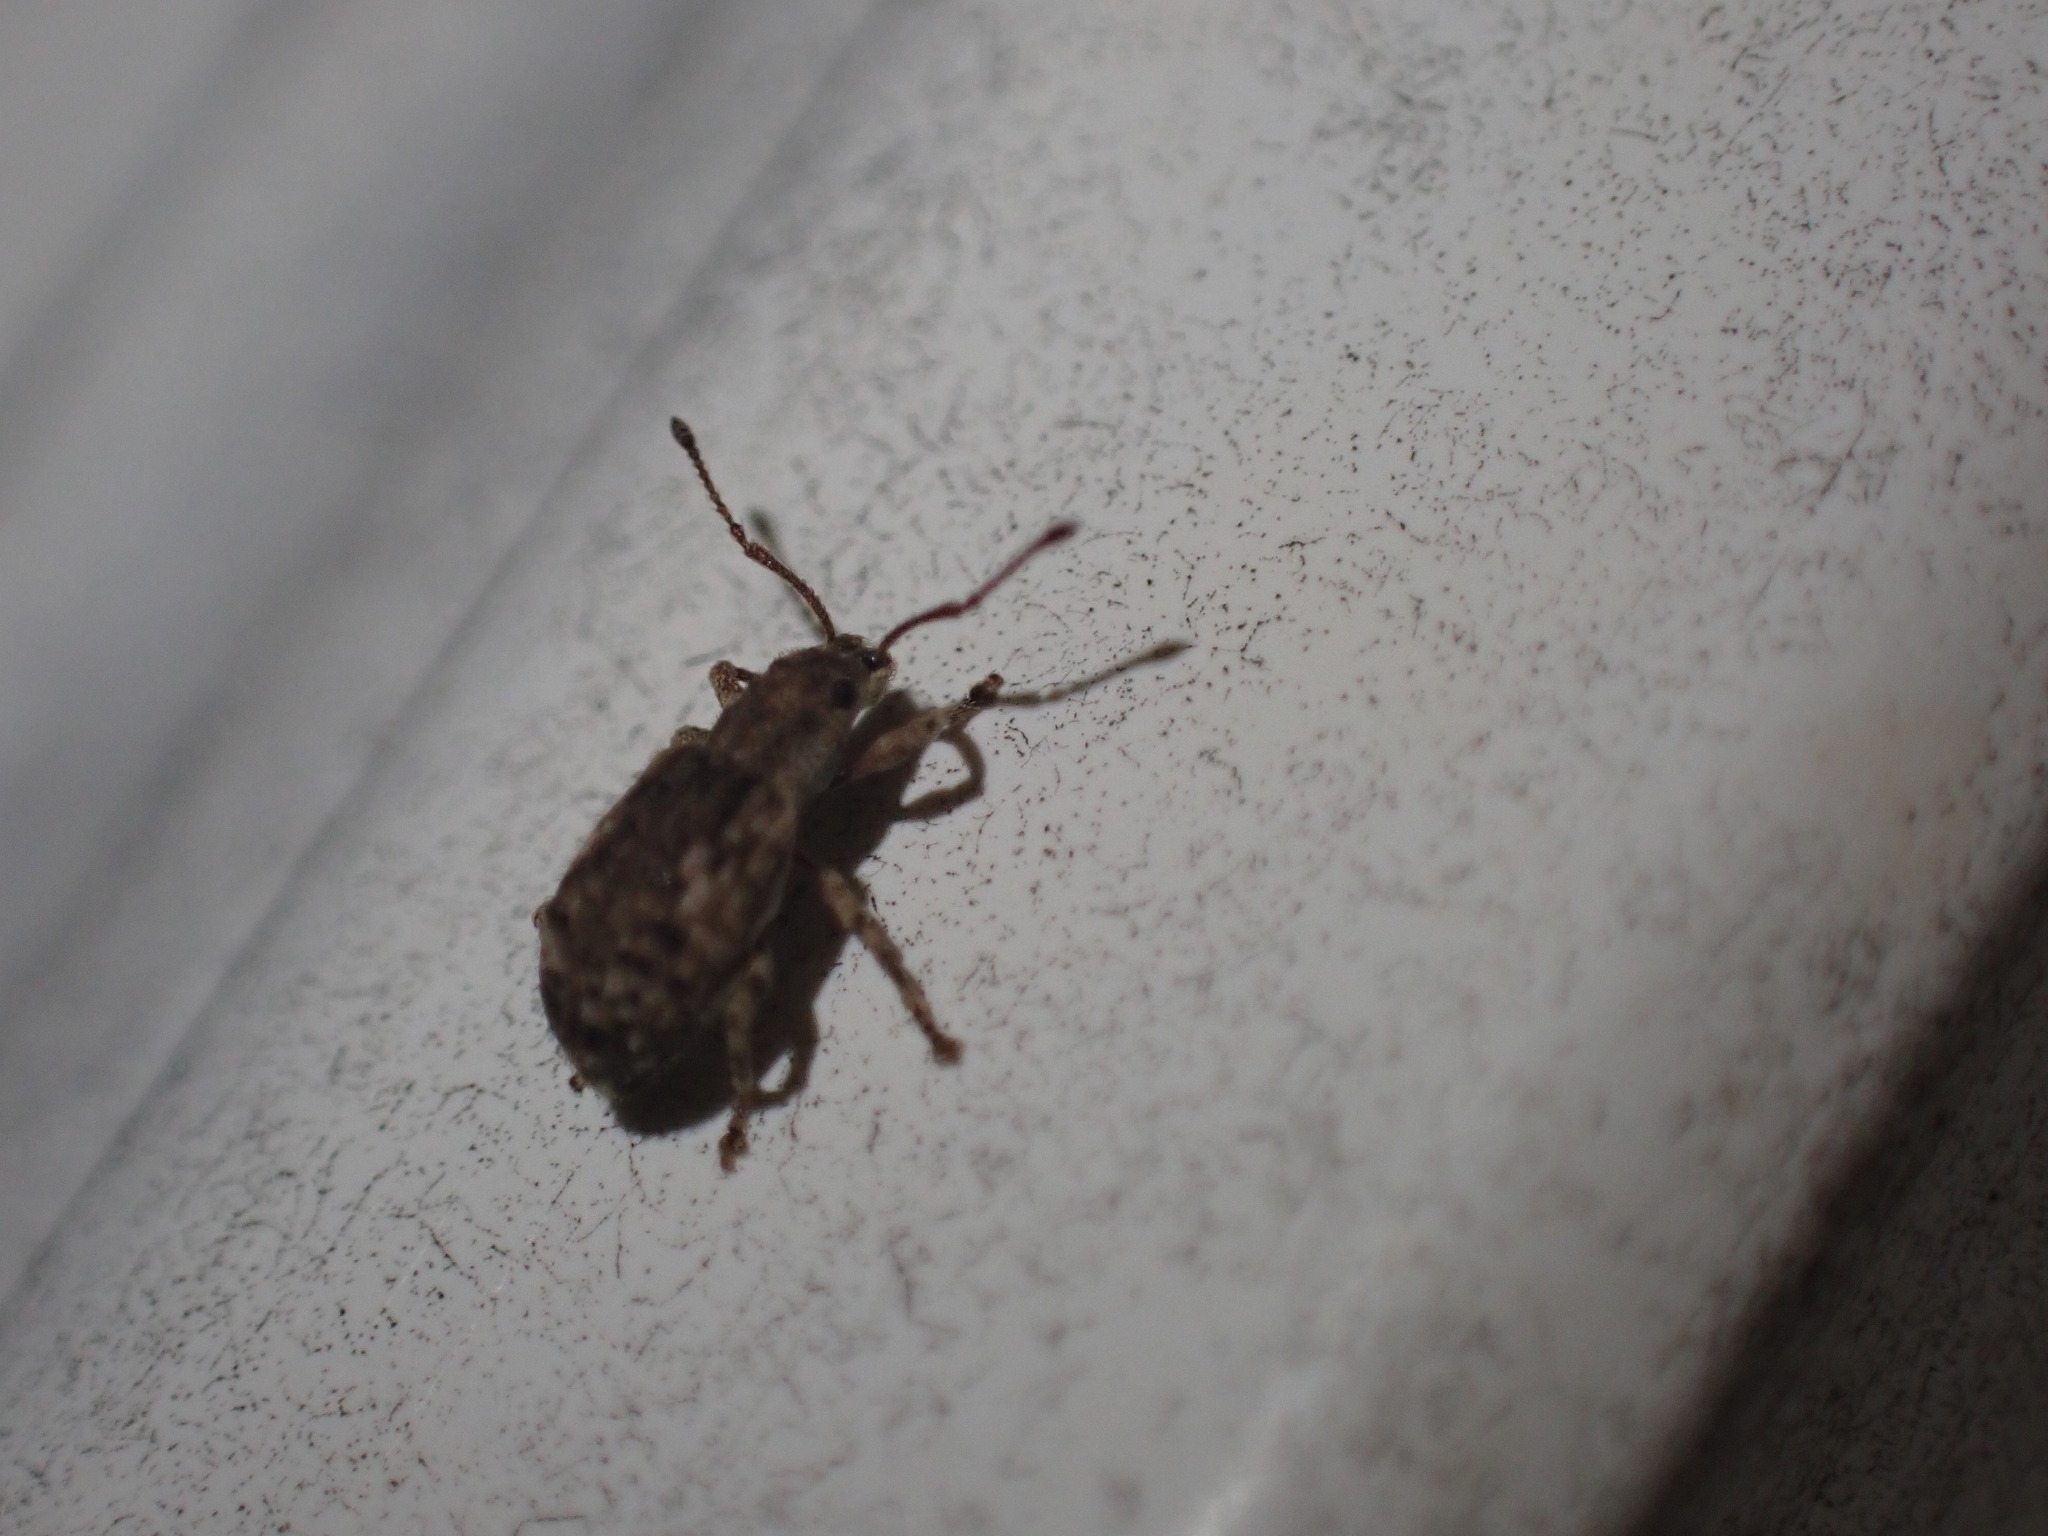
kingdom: Animalia
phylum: Arthropoda
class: Insecta
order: Coleoptera
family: Curculionidae
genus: Pseudoedophrys
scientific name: Pseudoedophrys hilleri
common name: Weevil
